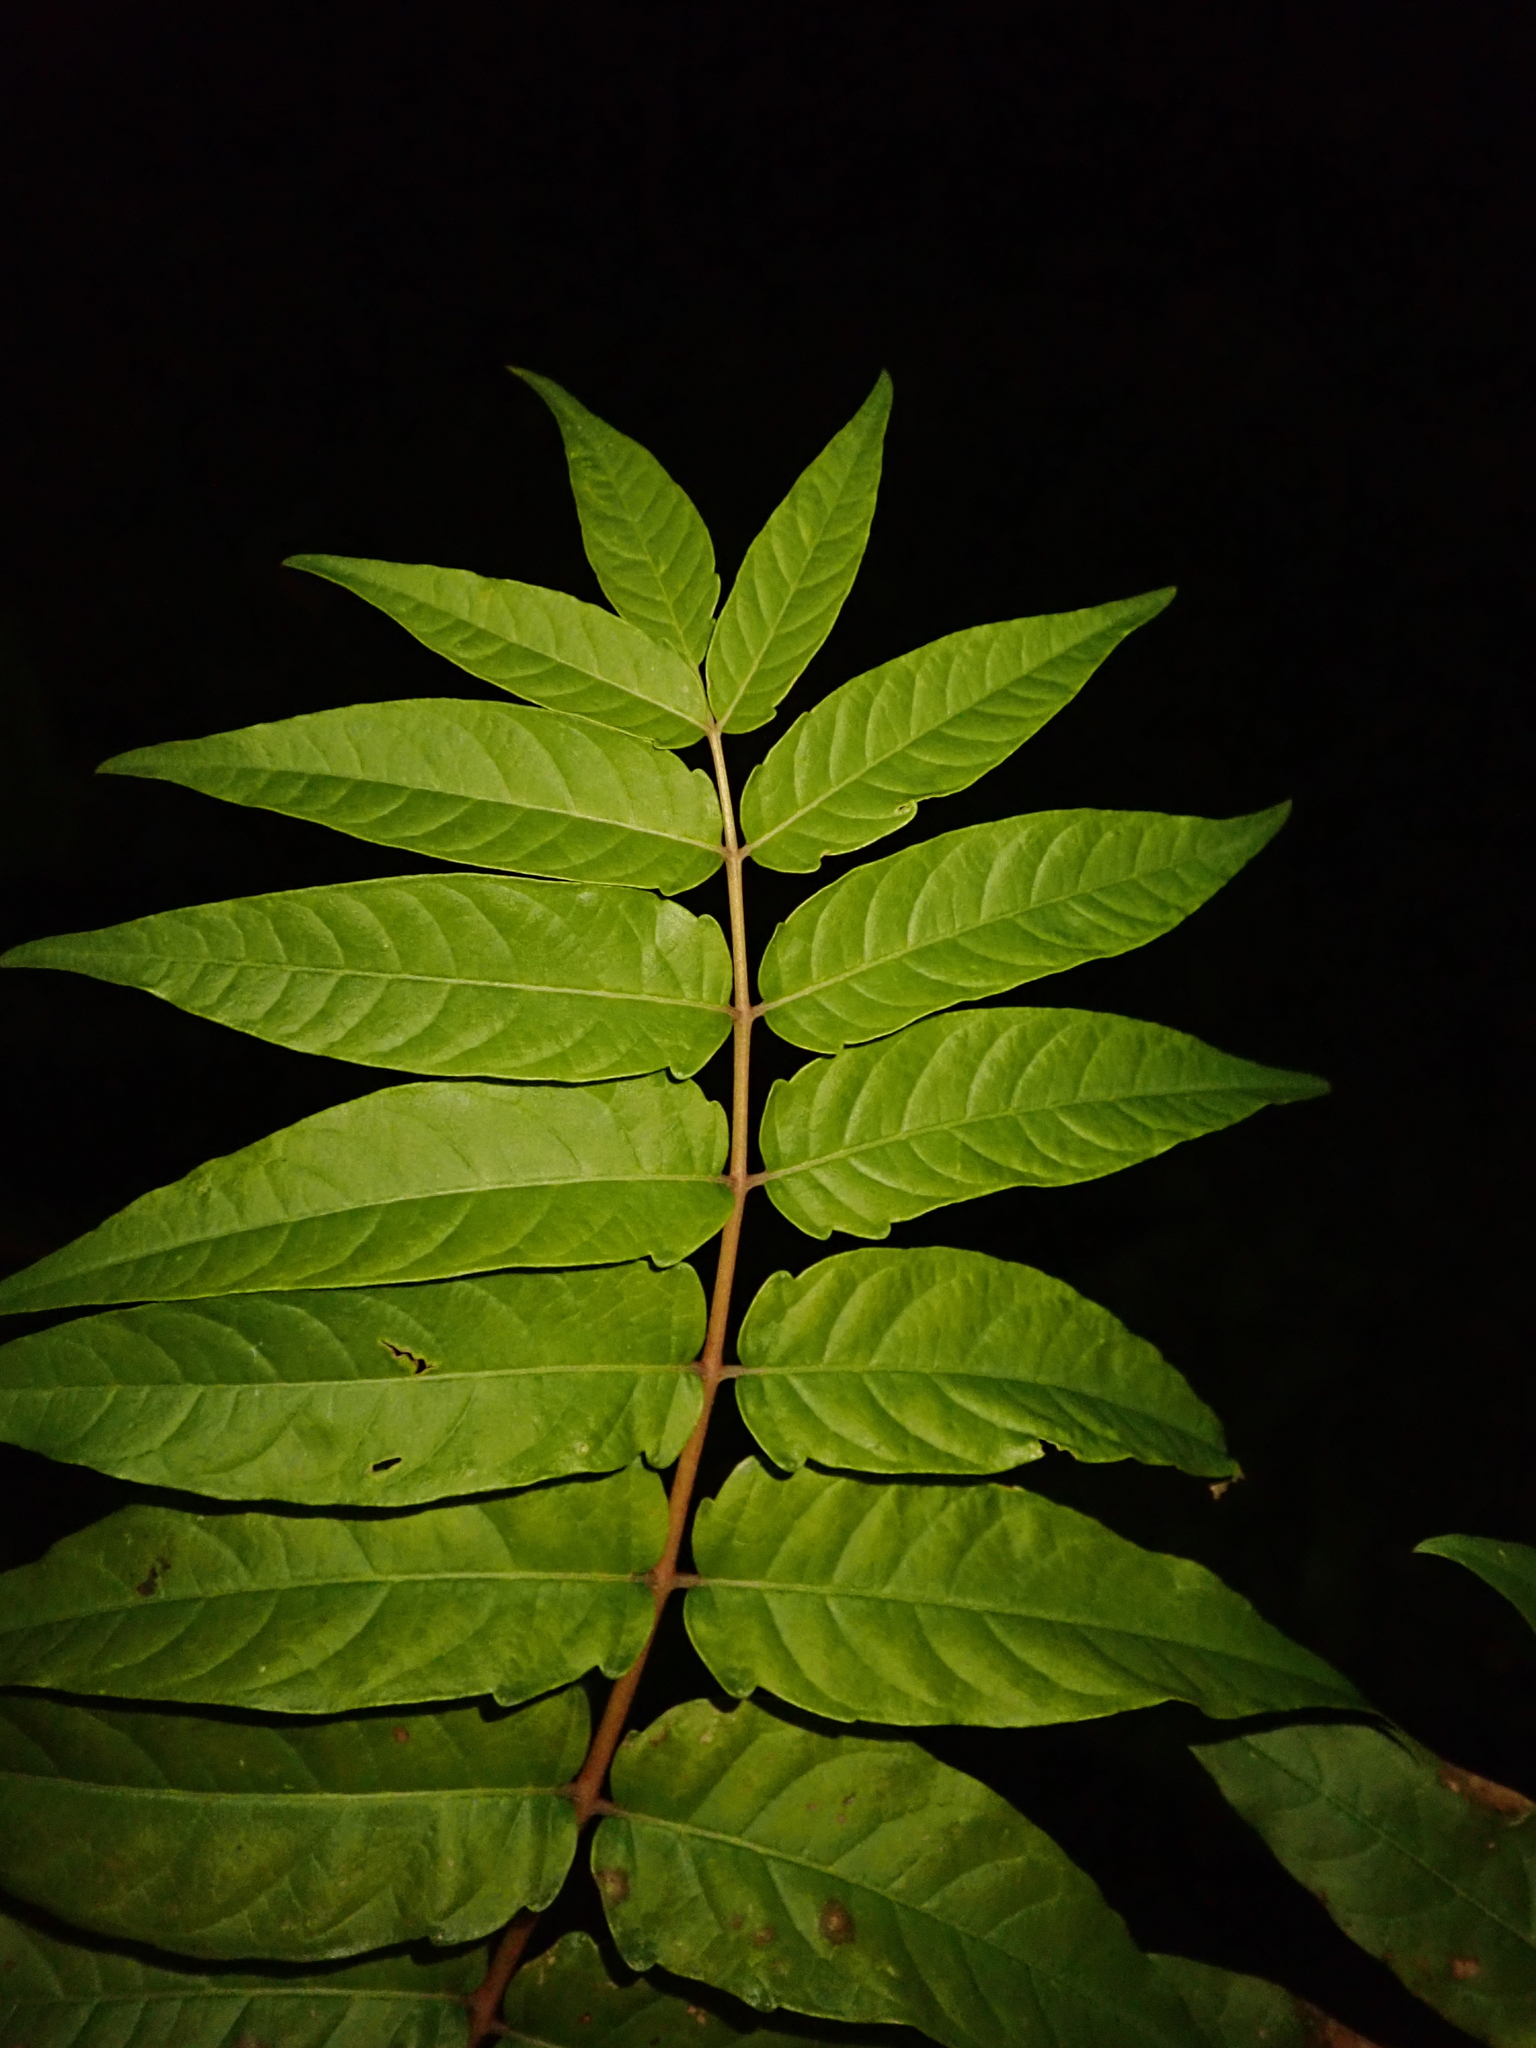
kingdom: Plantae
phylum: Tracheophyta
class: Magnoliopsida
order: Sapindales
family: Simaroubaceae
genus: Ailanthus
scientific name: Ailanthus altissima
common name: Tree-of-heaven
